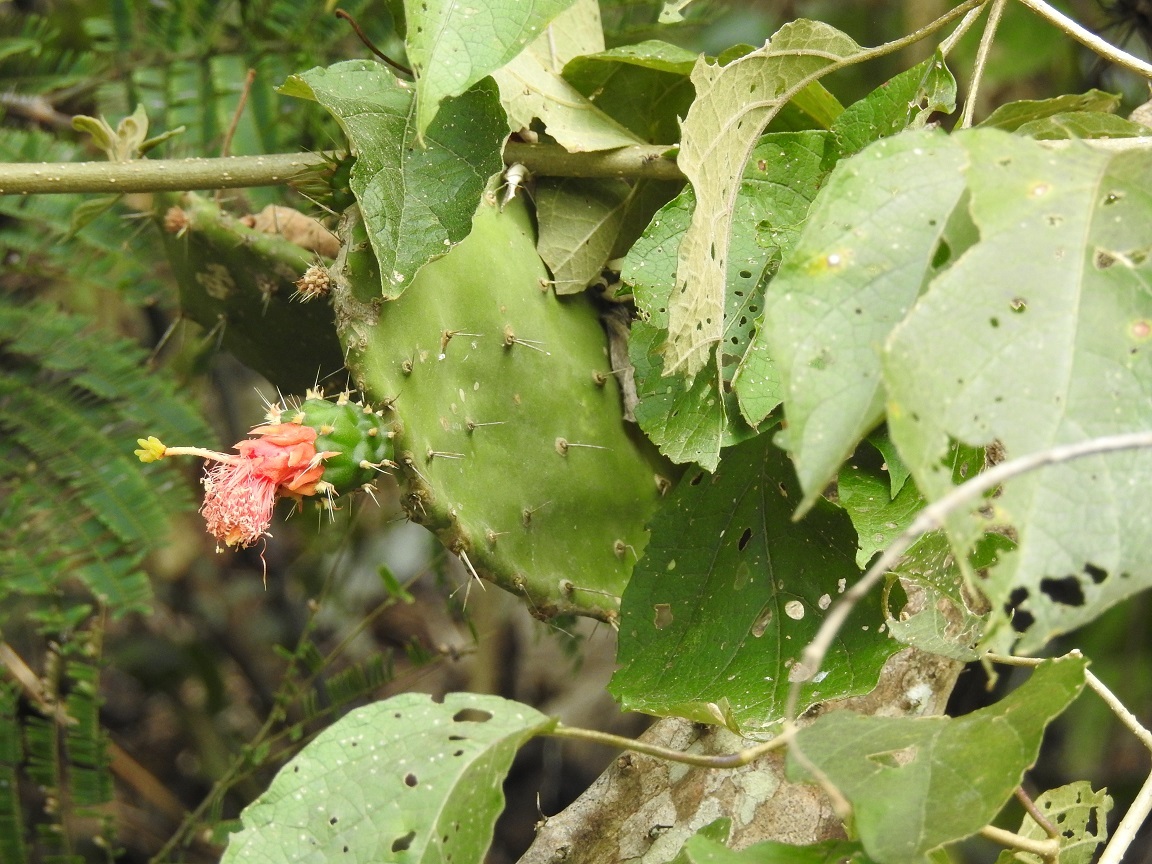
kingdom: Plantae
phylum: Tracheophyta
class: Magnoliopsida
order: Caryophyllales
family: Cactaceae
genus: Opuntia
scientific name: Opuntia dejecta
